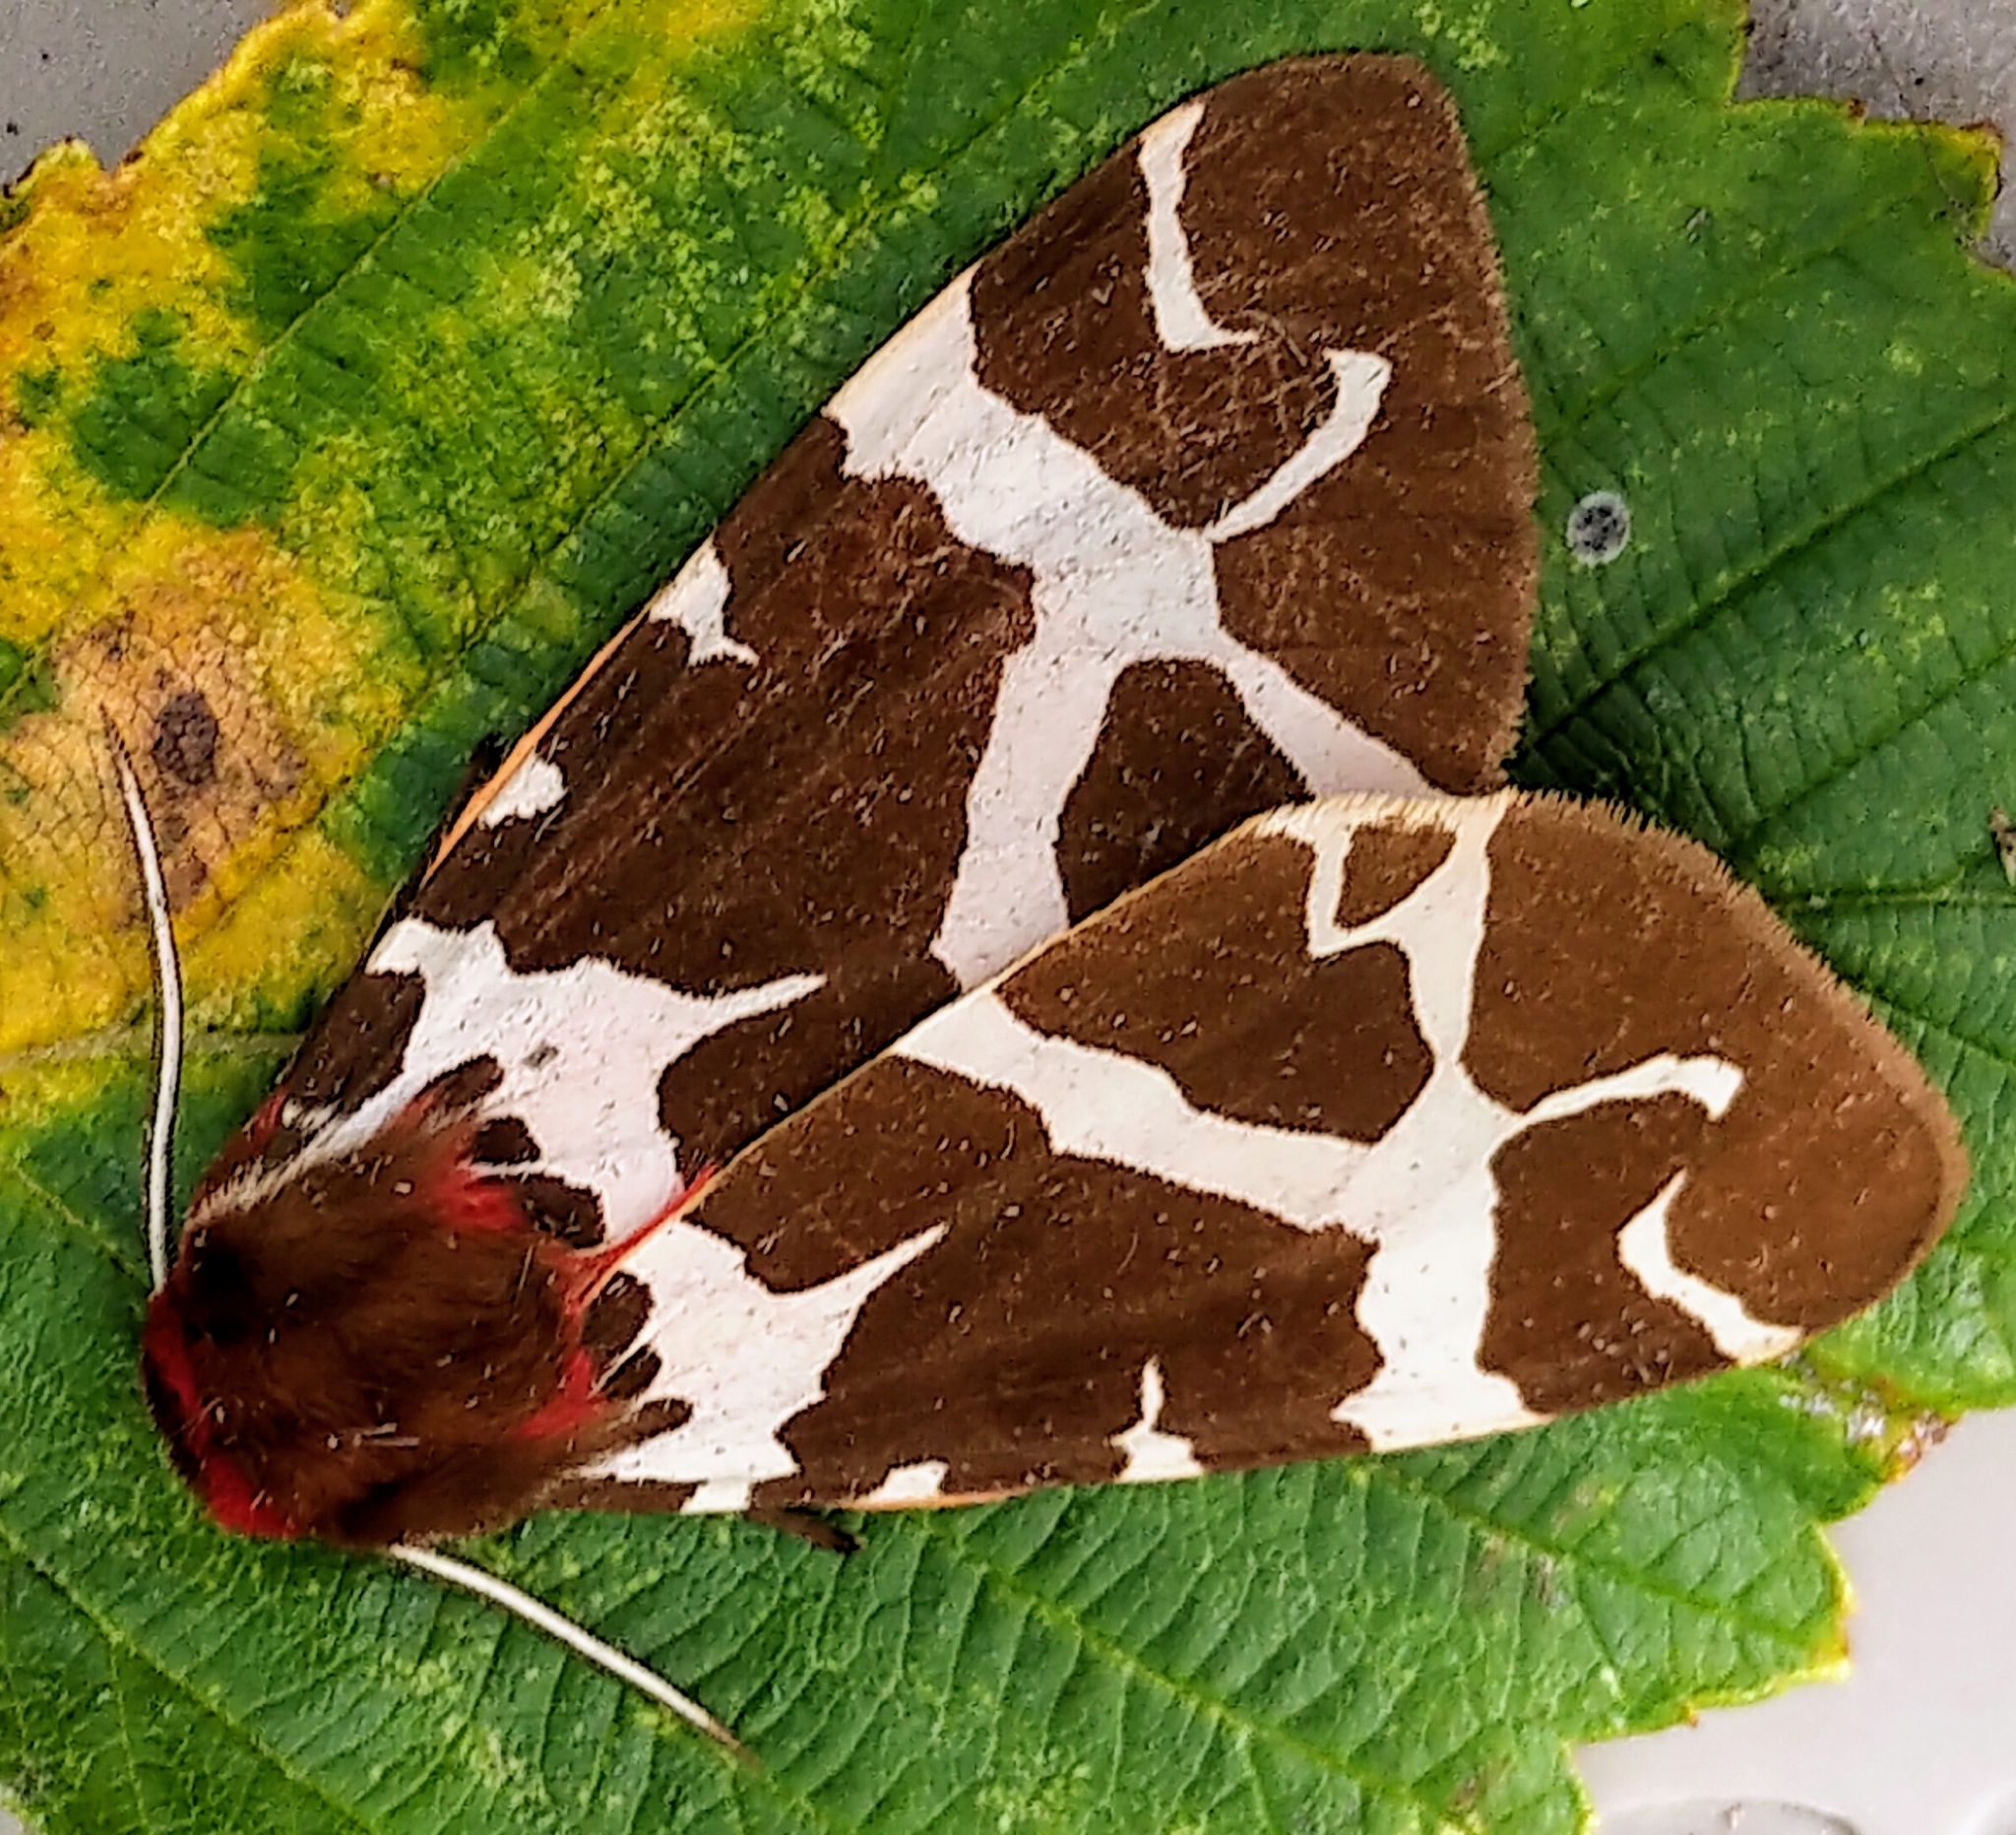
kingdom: Animalia
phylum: Arthropoda
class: Insecta
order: Lepidoptera
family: Erebidae
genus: Arctia
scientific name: Arctia caja
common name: Garden tiger
